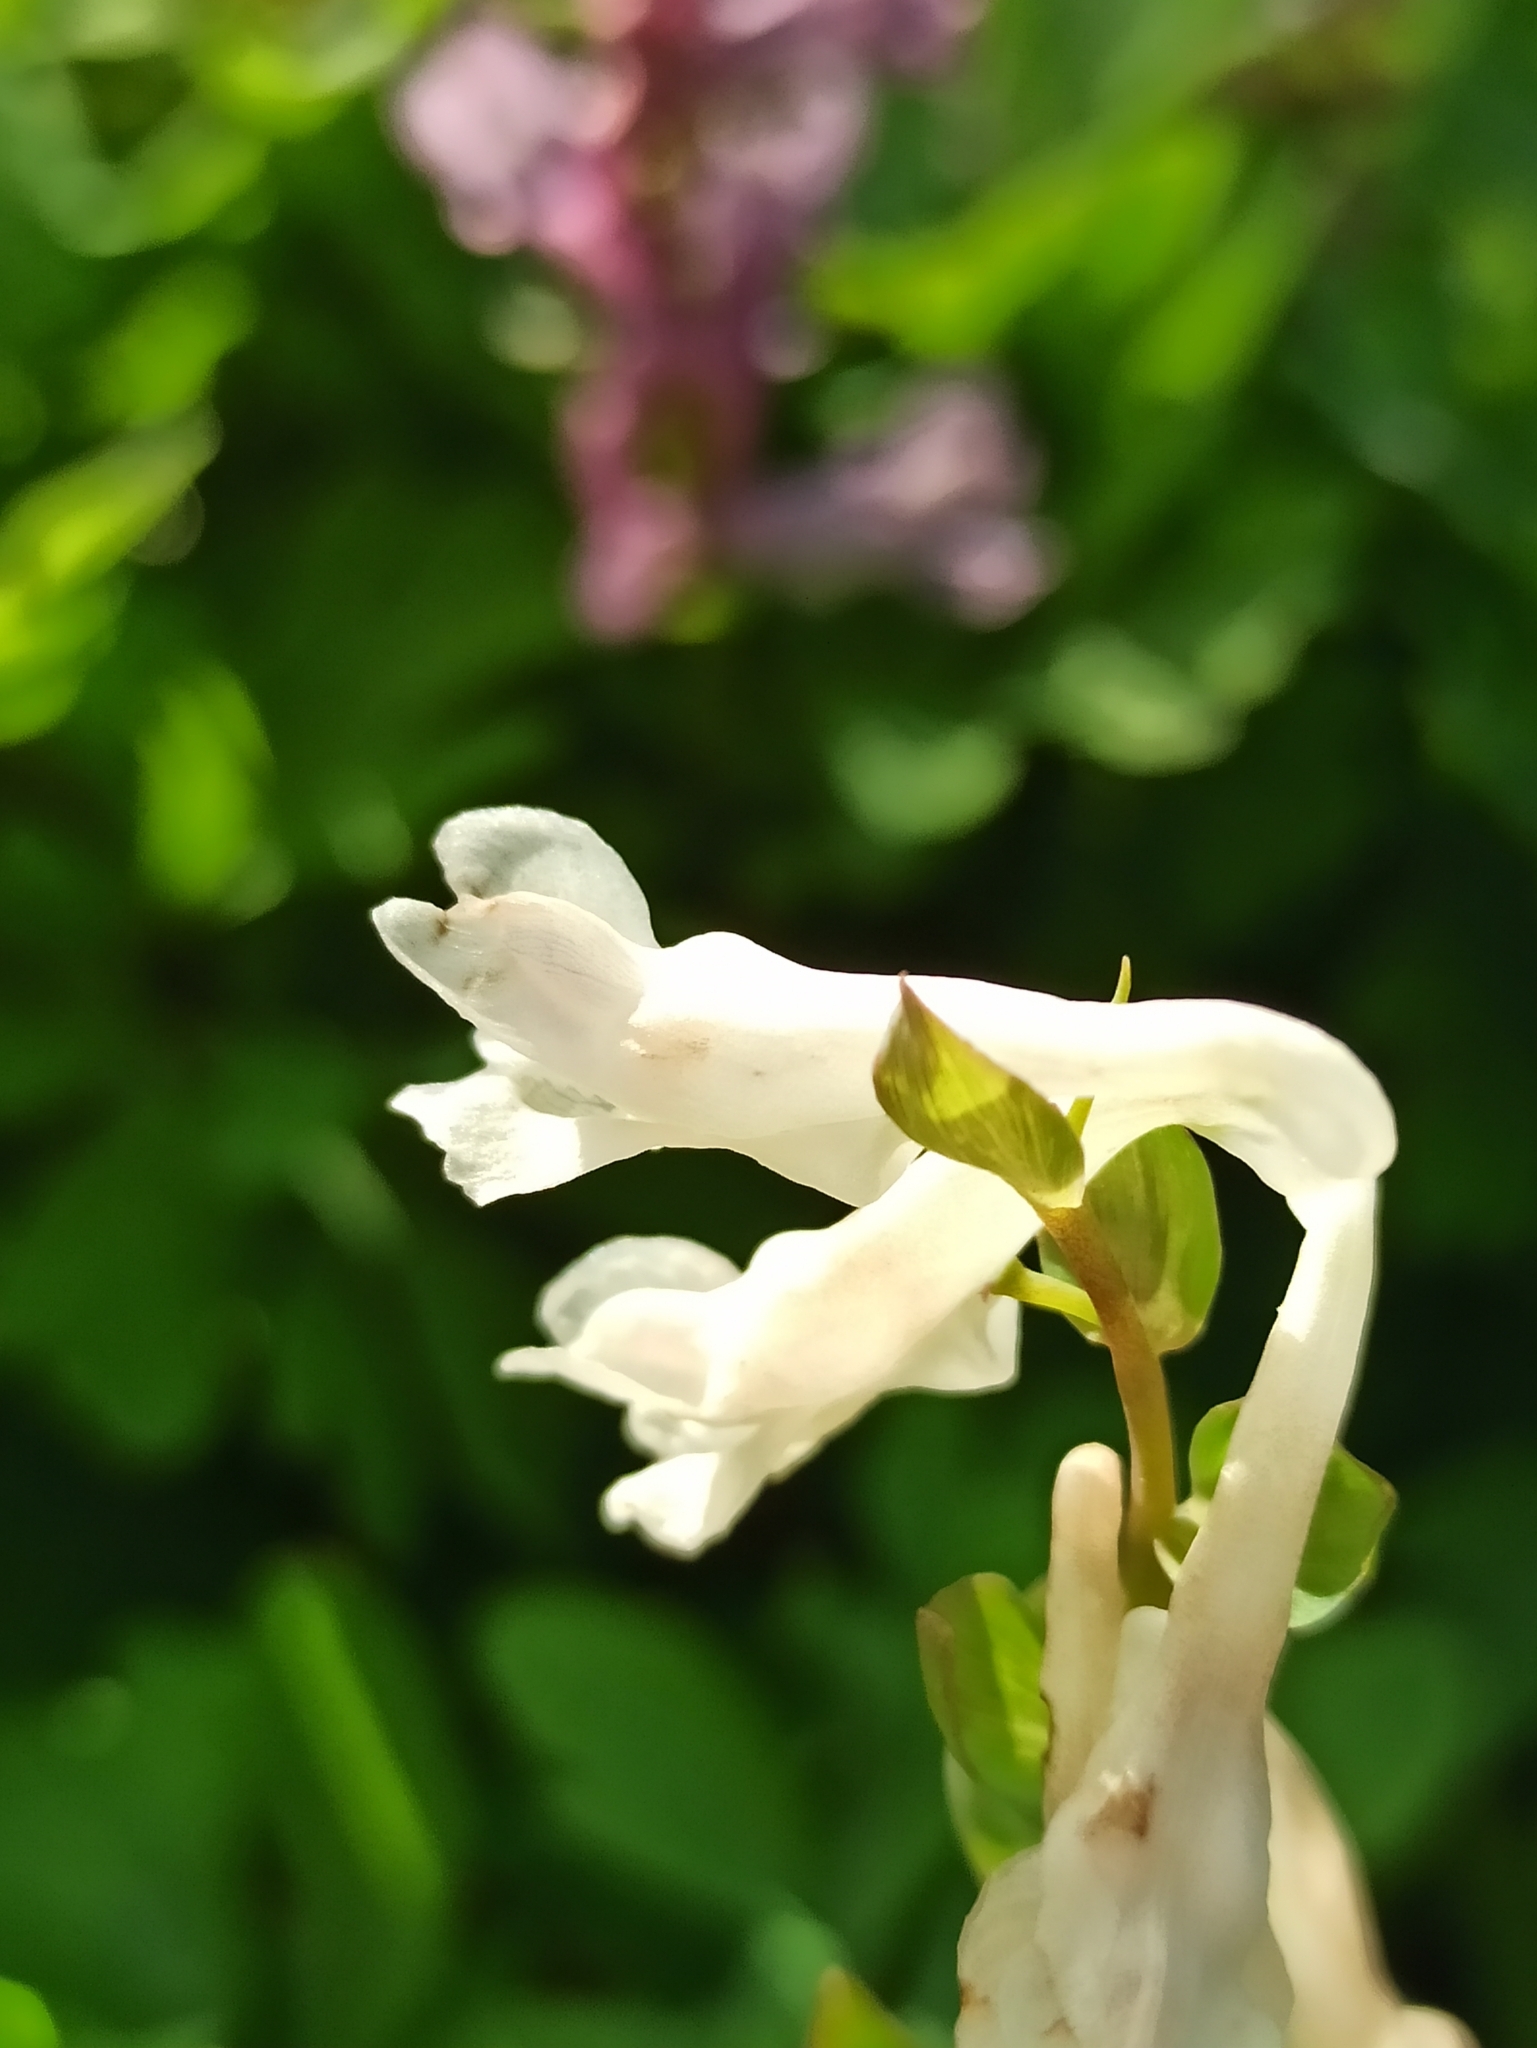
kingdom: Plantae
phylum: Tracheophyta
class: Magnoliopsida
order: Ranunculales
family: Papaveraceae
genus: Corydalis
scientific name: Corydalis cava
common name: Hollowroot
